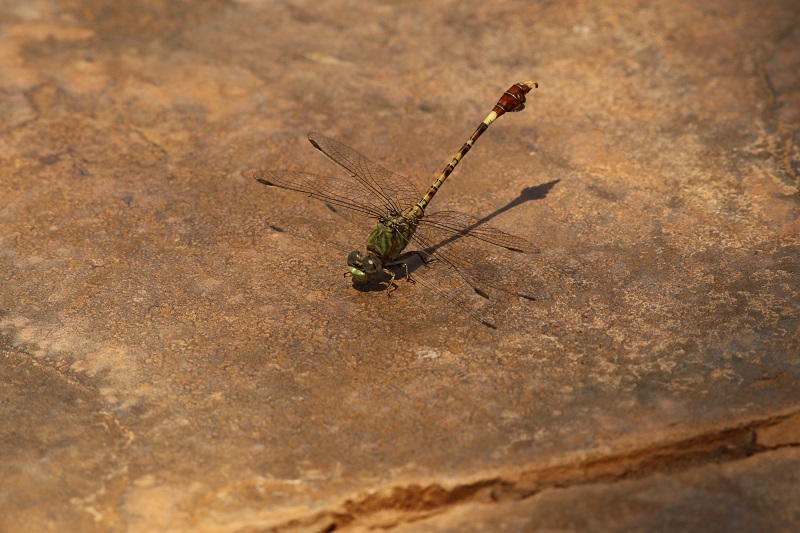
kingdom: Animalia
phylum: Arthropoda
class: Insecta
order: Odonata
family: Gomphidae
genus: Paragomphus
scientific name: Paragomphus genei
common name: Common hooktail
